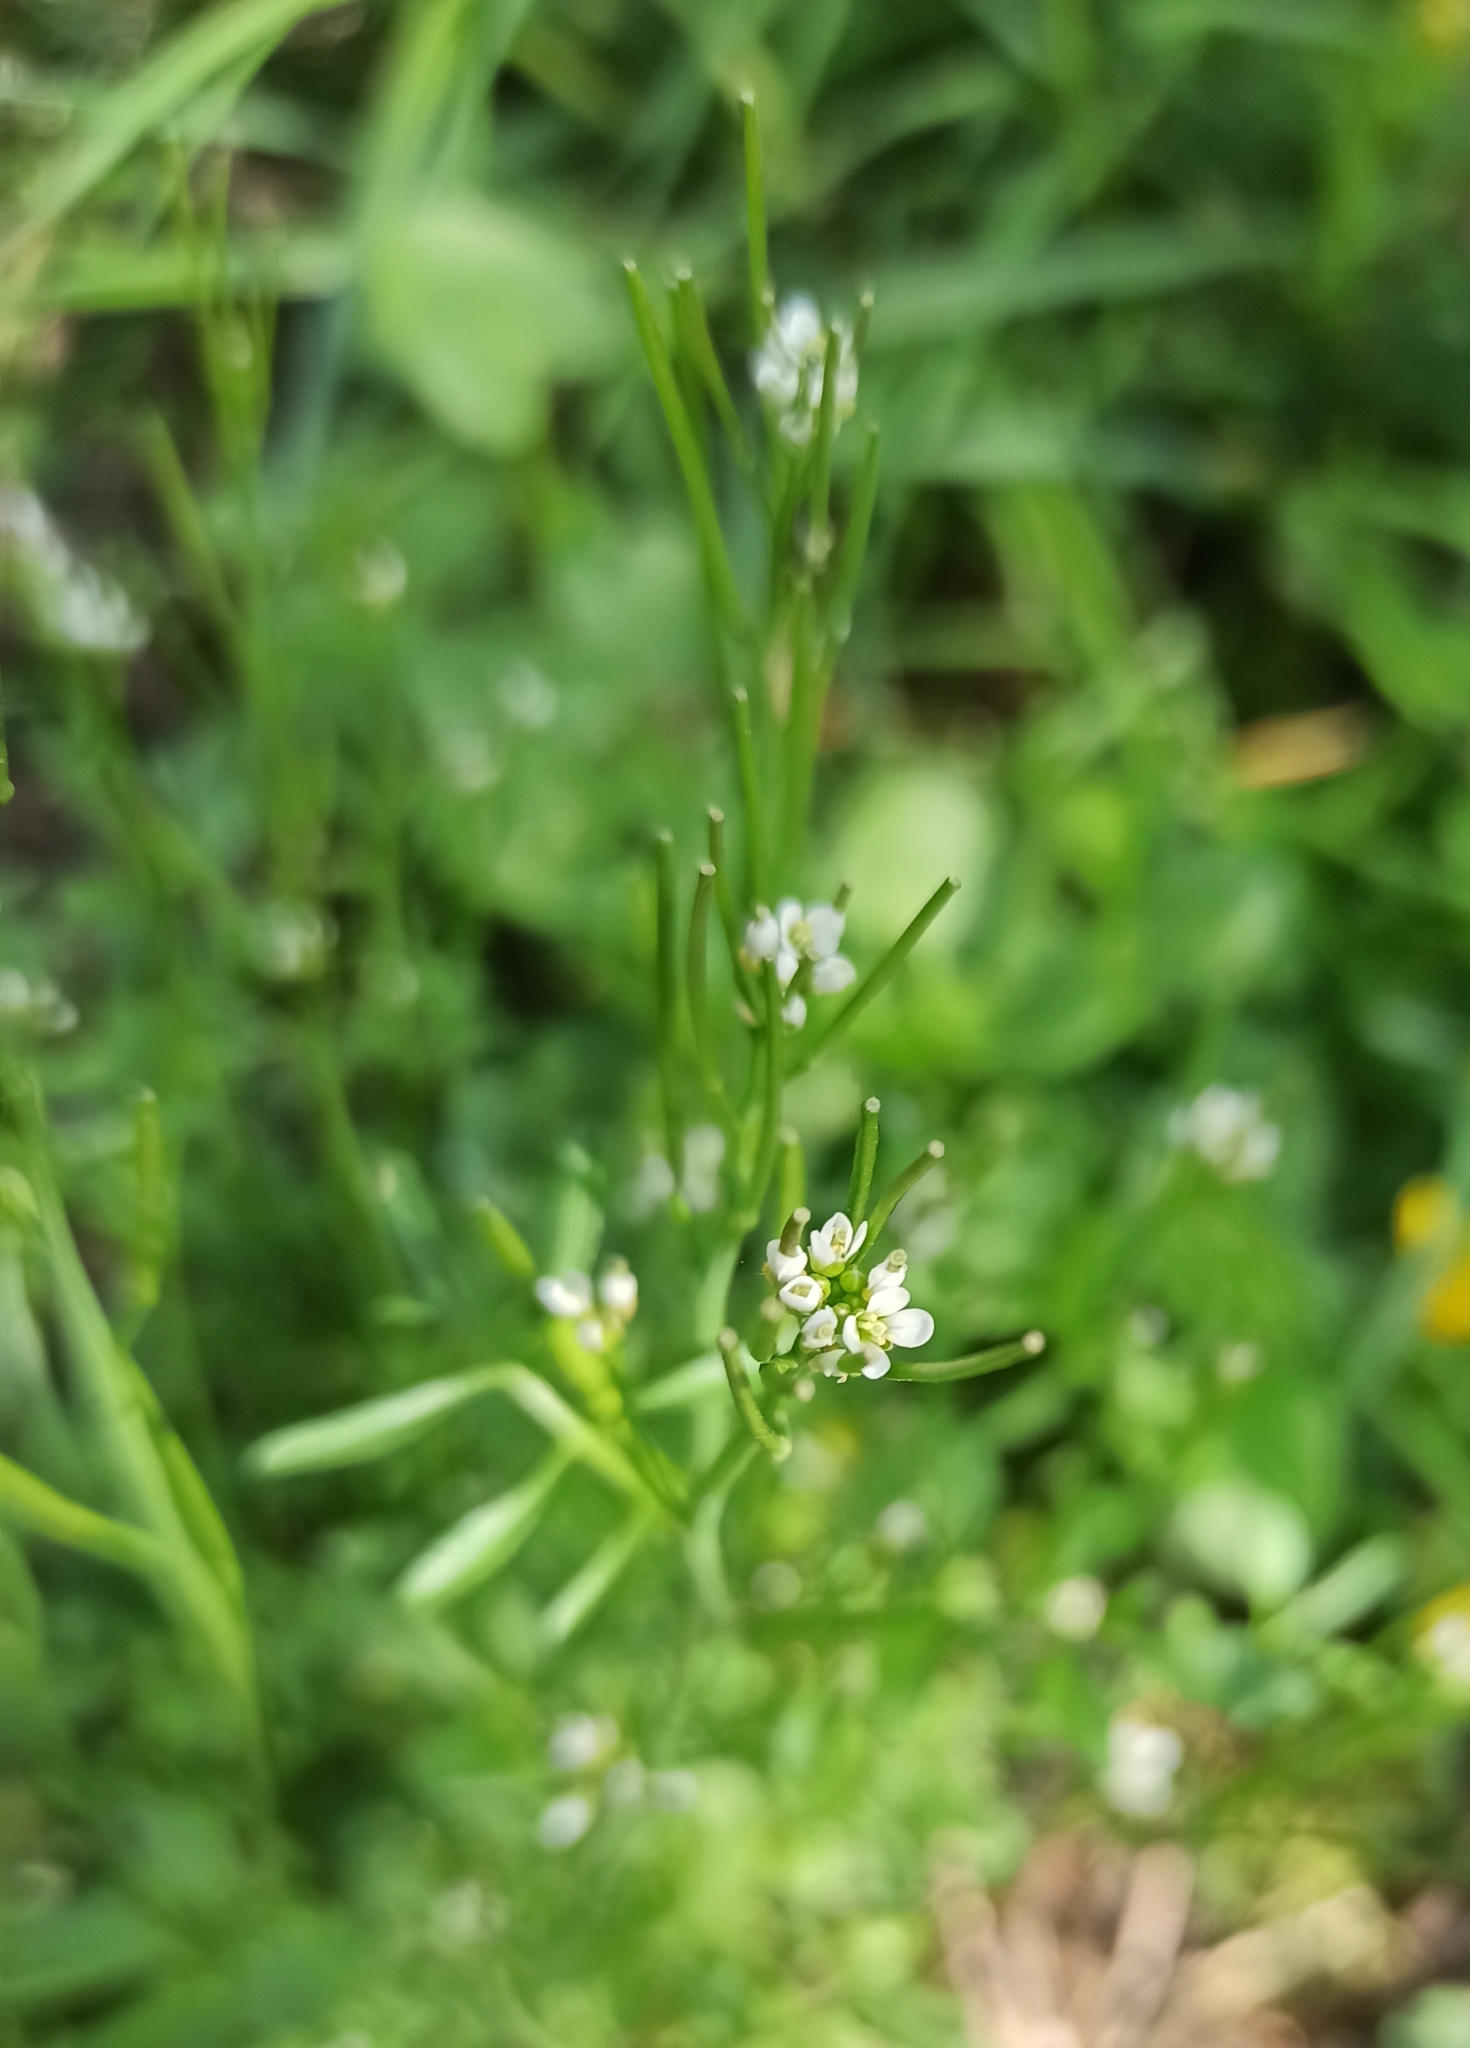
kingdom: Plantae
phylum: Tracheophyta
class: Magnoliopsida
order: Brassicales
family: Brassicaceae
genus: Cardamine
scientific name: Cardamine hirsuta
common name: Hairy bittercress
